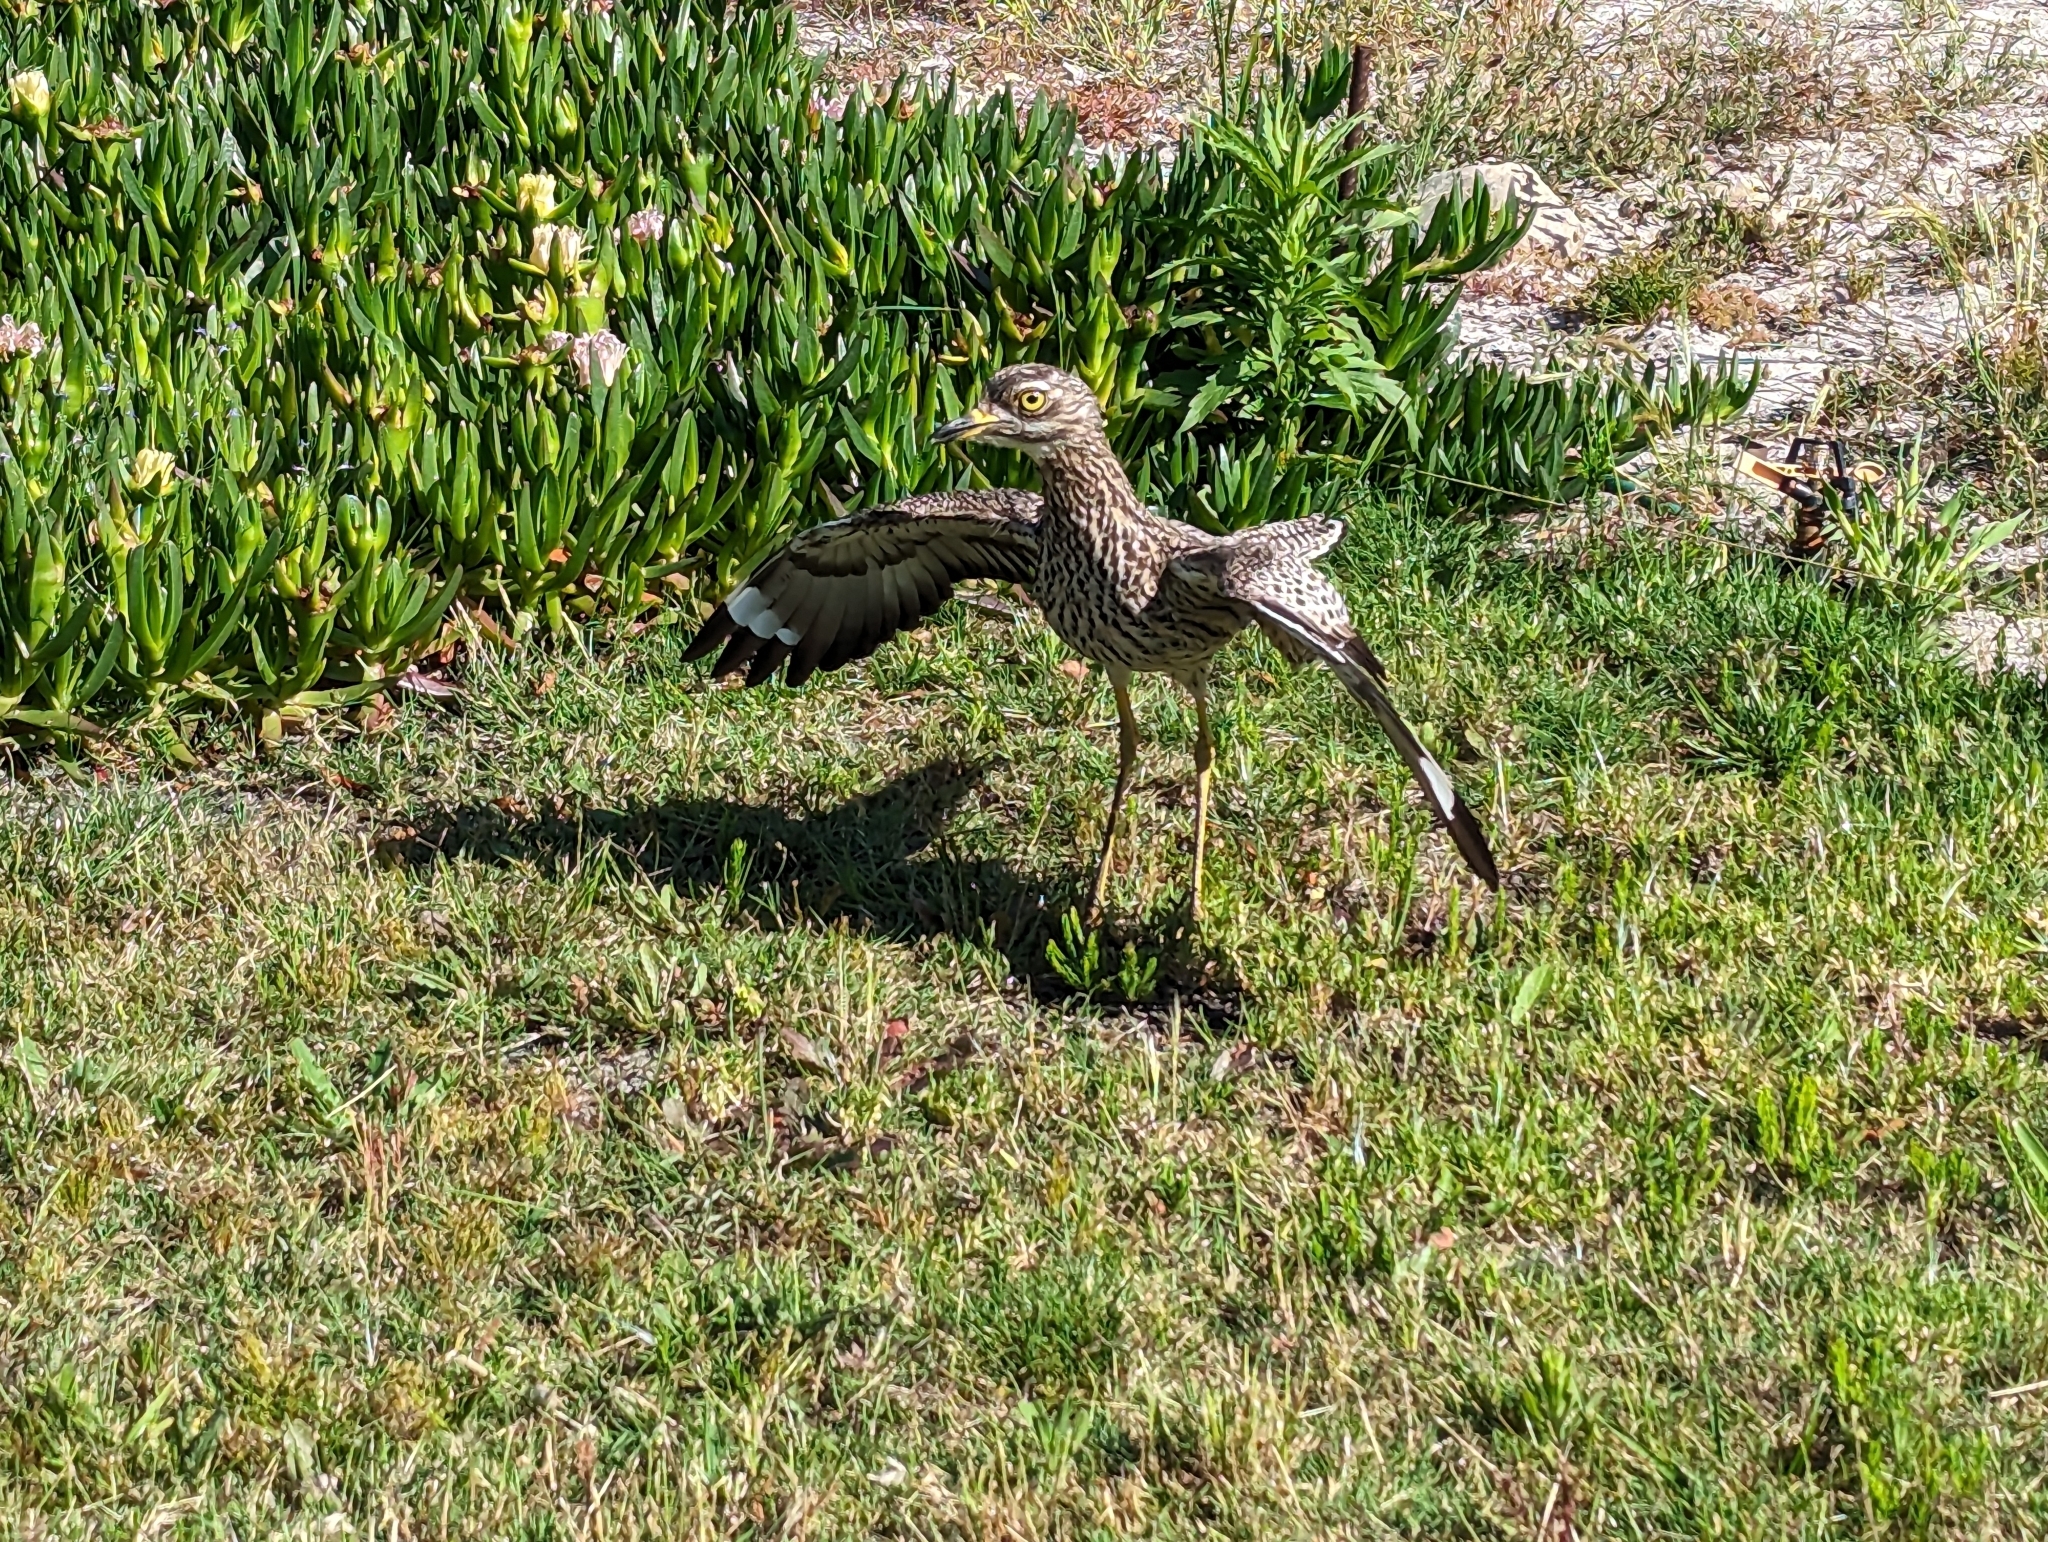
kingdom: Animalia
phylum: Chordata
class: Aves
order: Charadriiformes
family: Burhinidae
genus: Burhinus
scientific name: Burhinus capensis
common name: Spotted thick-knee
